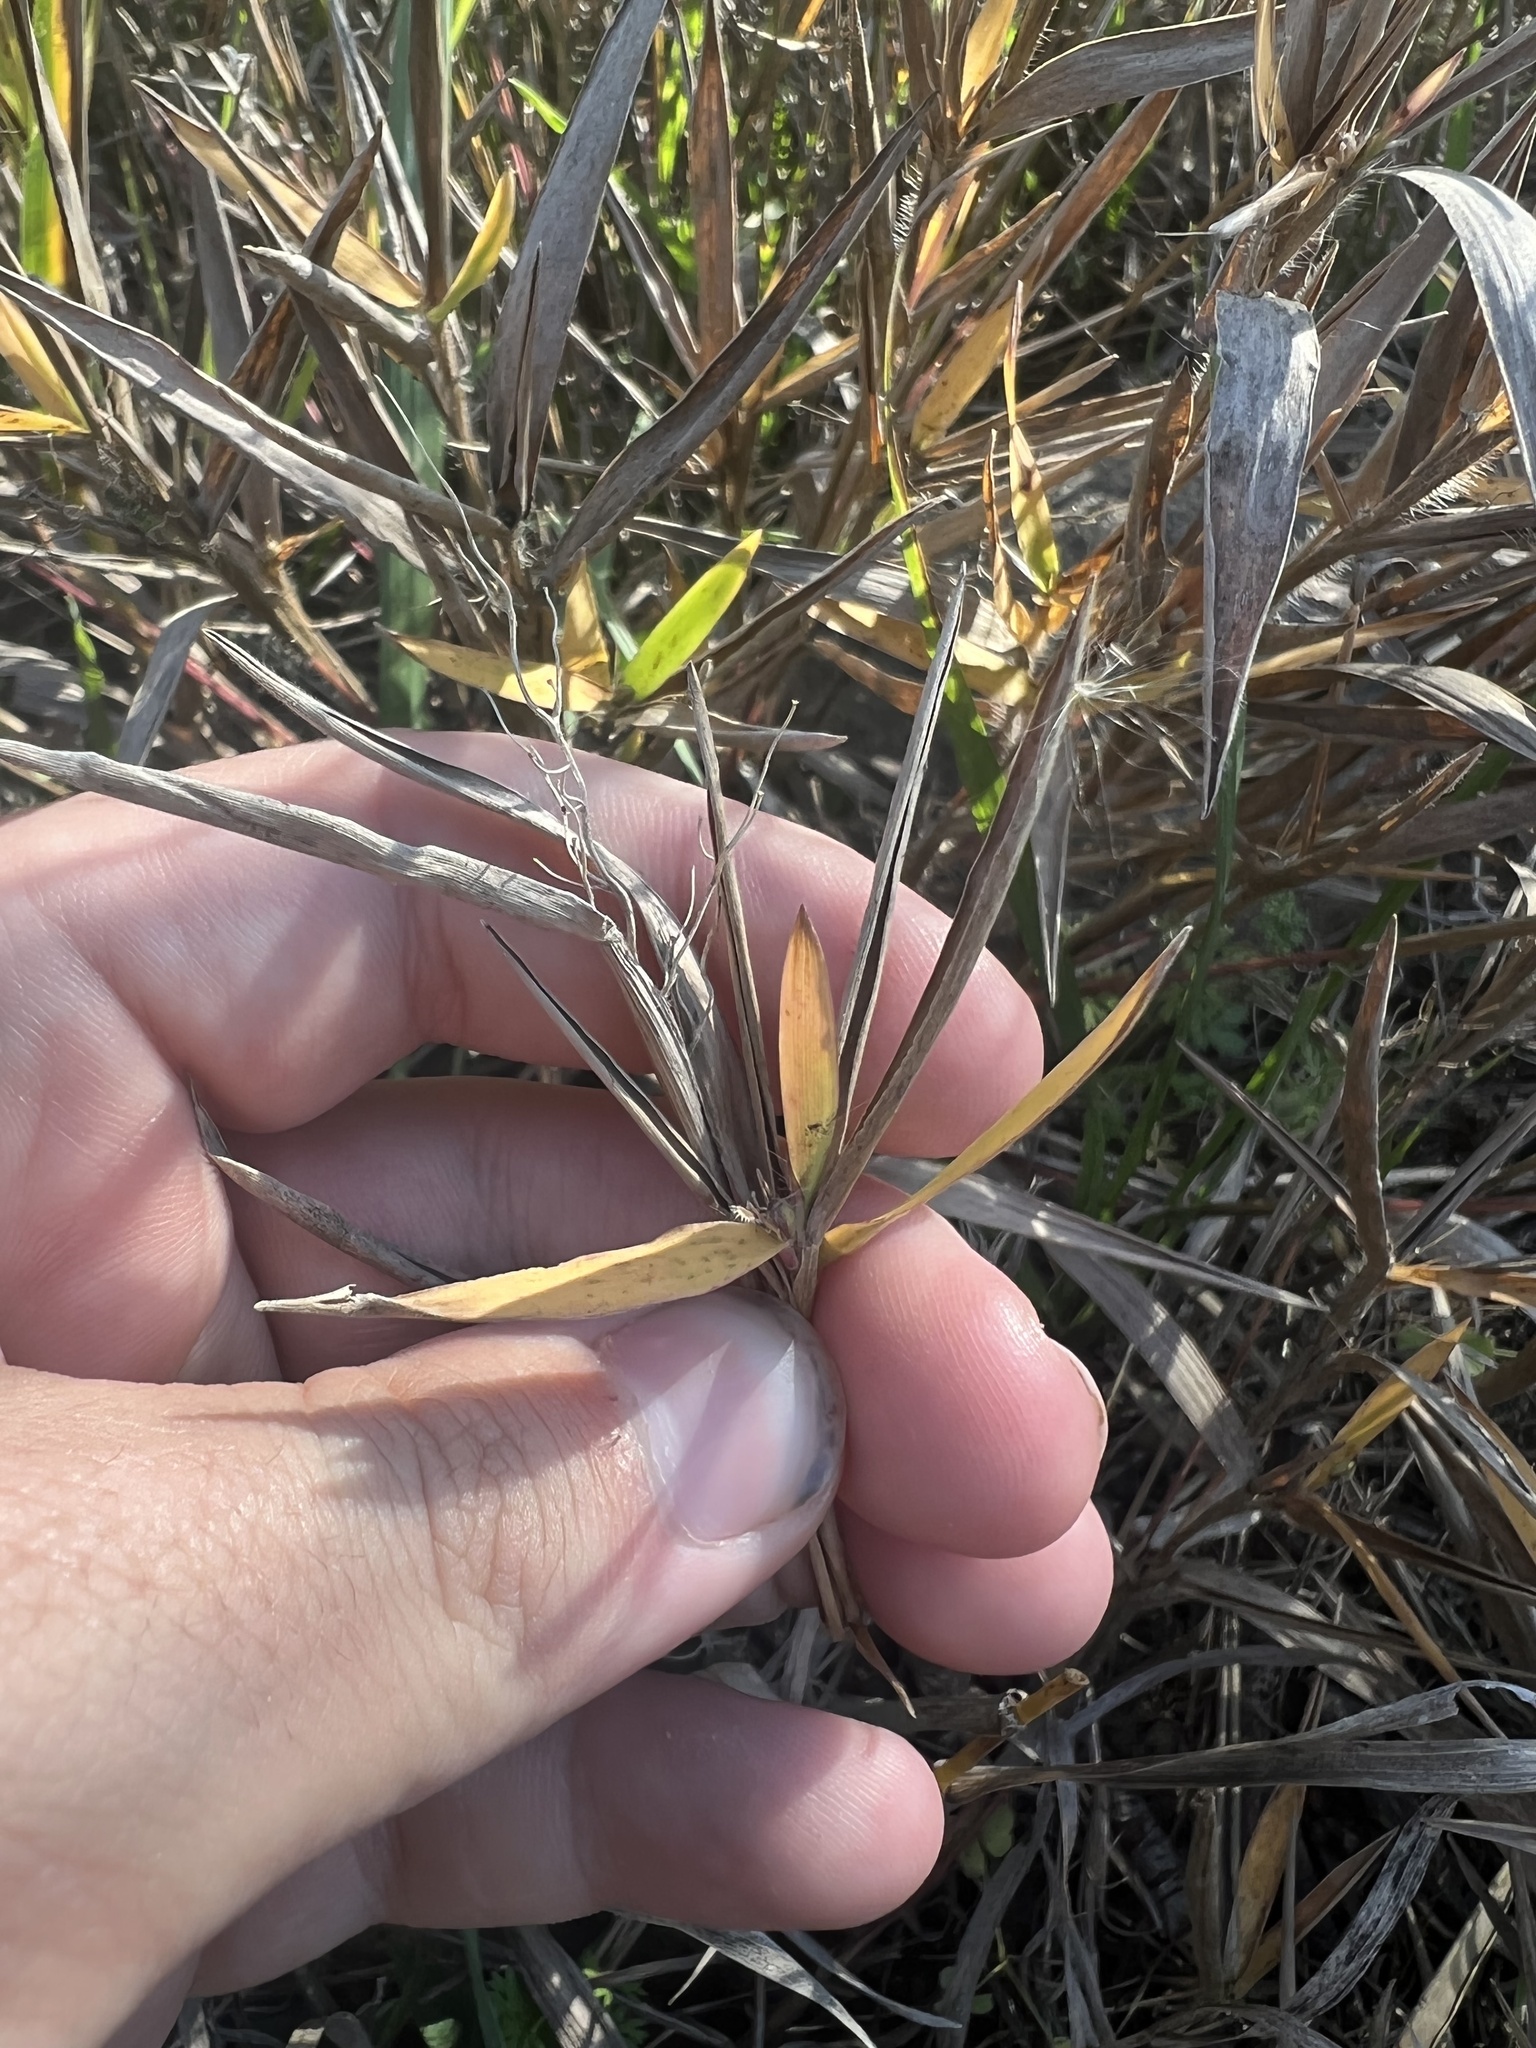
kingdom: Plantae
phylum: Tracheophyta
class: Liliopsida
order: Poales
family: Poaceae
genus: Dichanthelium
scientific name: Dichanthelium scribnerianum
